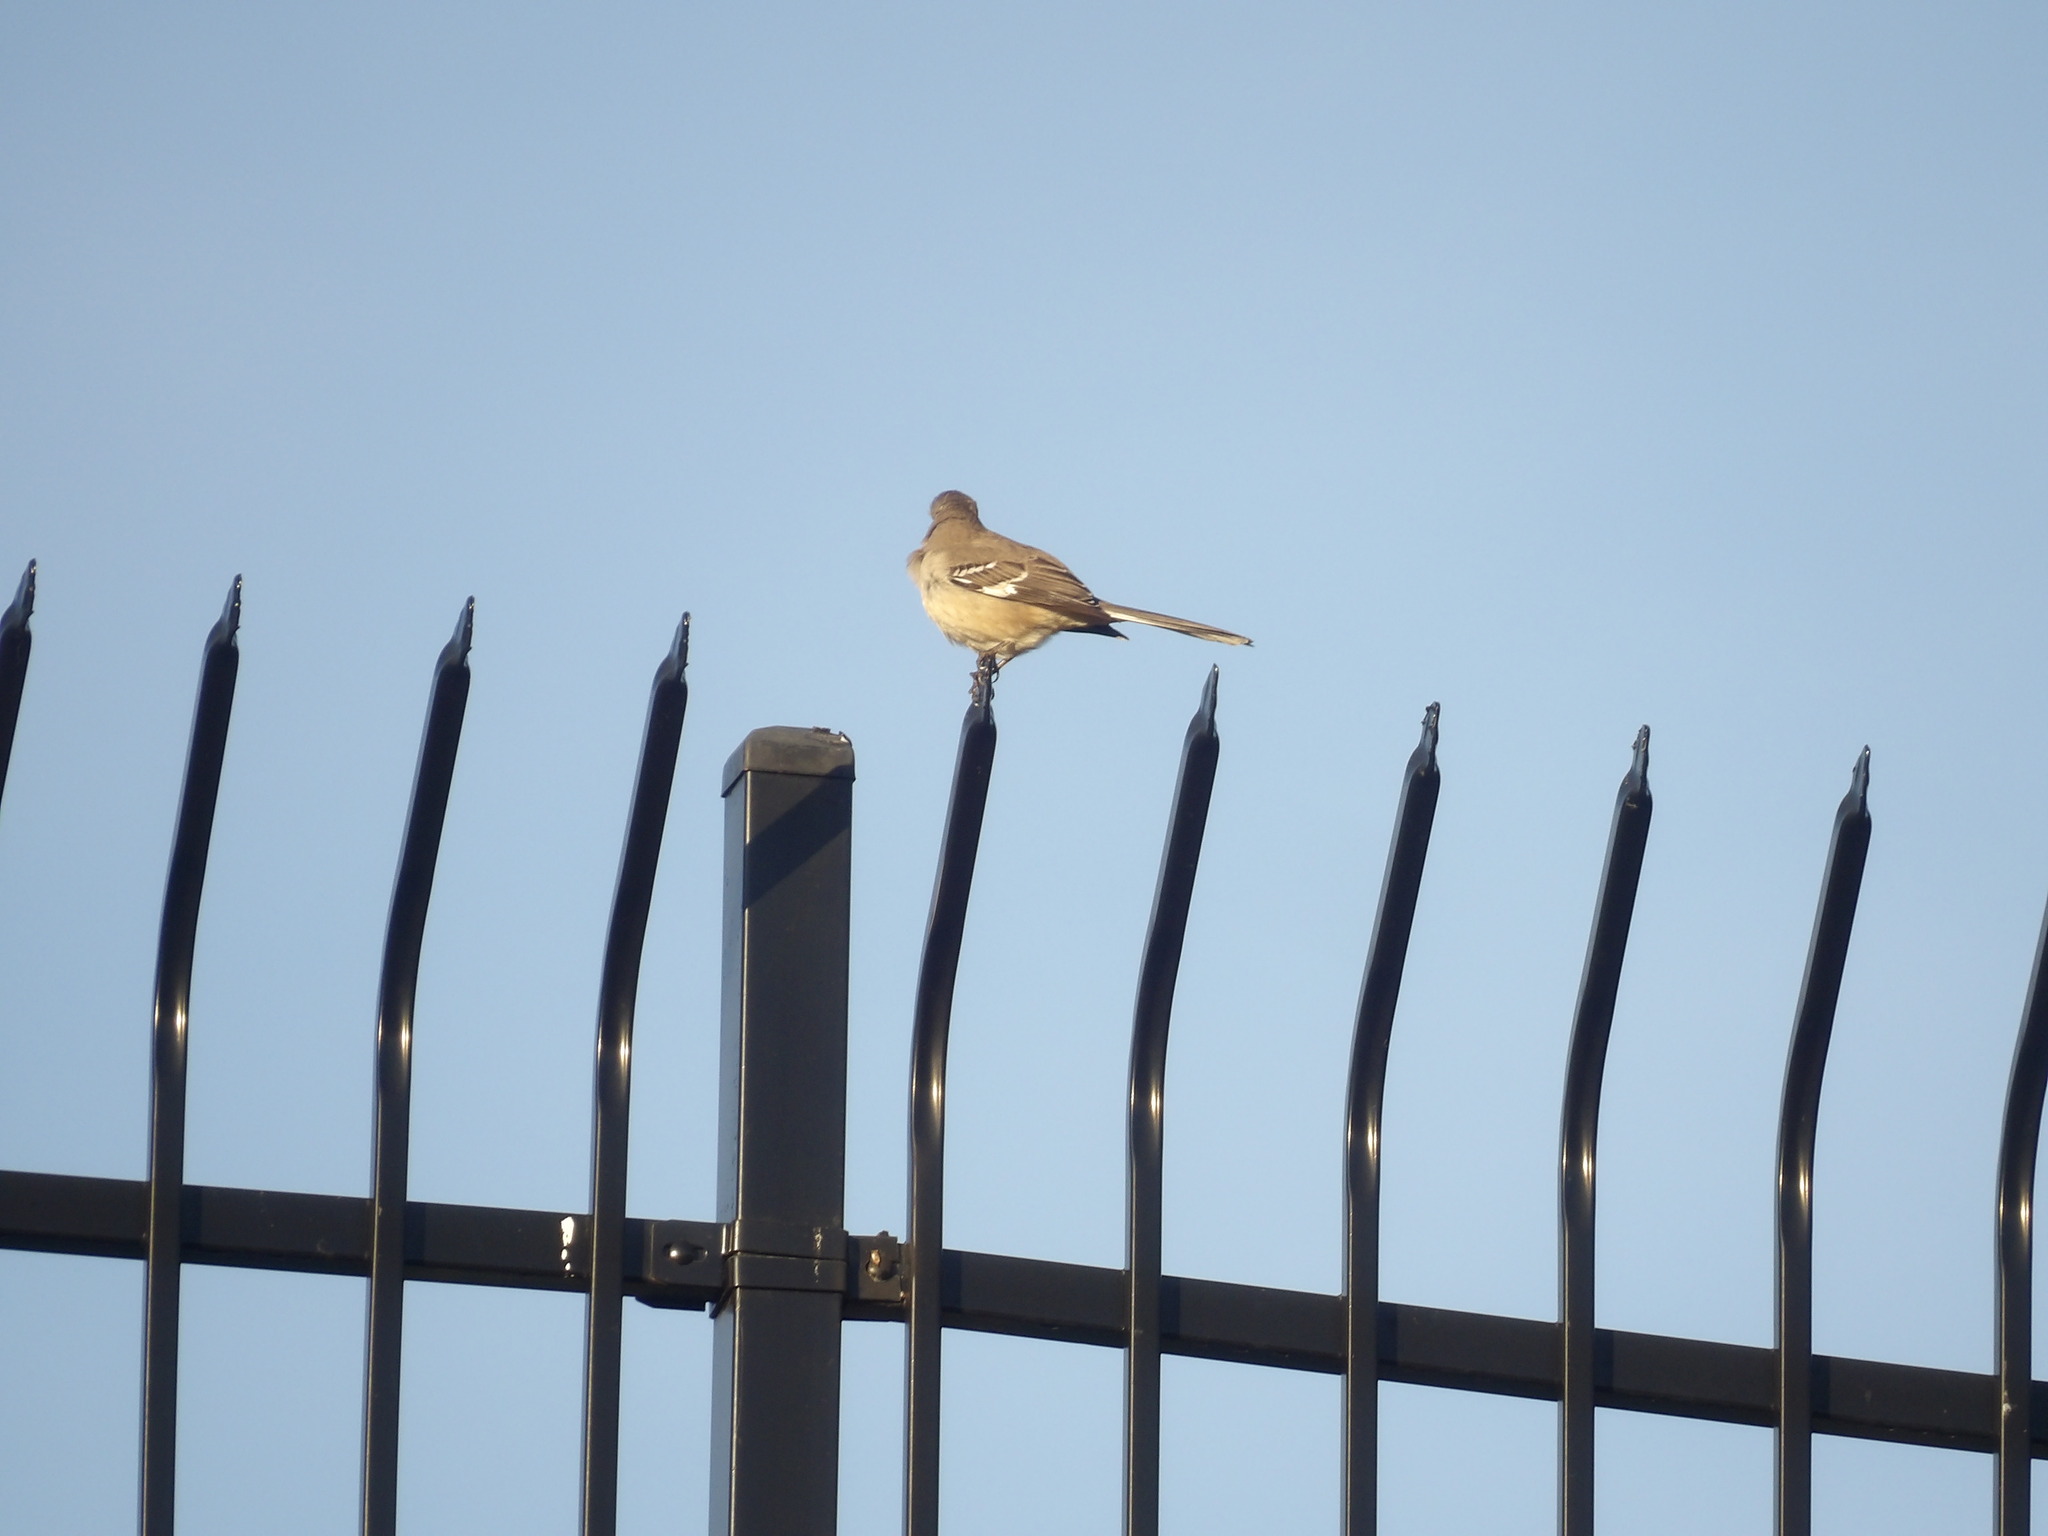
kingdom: Animalia
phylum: Chordata
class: Aves
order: Passeriformes
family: Mimidae
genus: Mimus
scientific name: Mimus polyglottos
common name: Northern mockingbird
